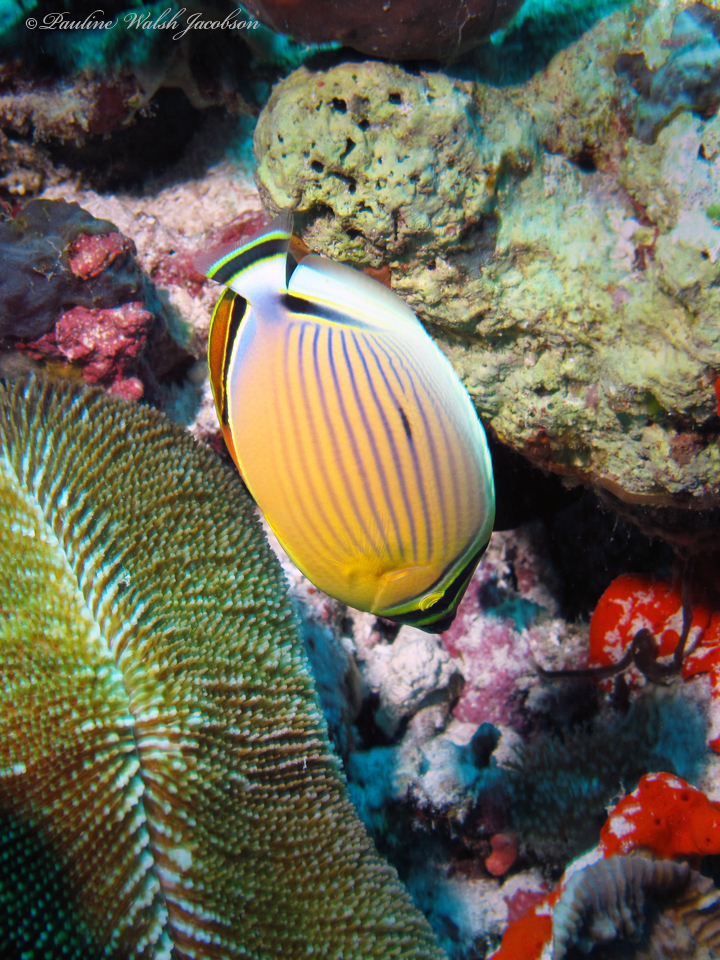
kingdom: Animalia
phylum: Chordata
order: Perciformes
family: Chaetodontidae
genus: Chaetodon
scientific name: Chaetodon lunulatus
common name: Redfin butterflyfish
